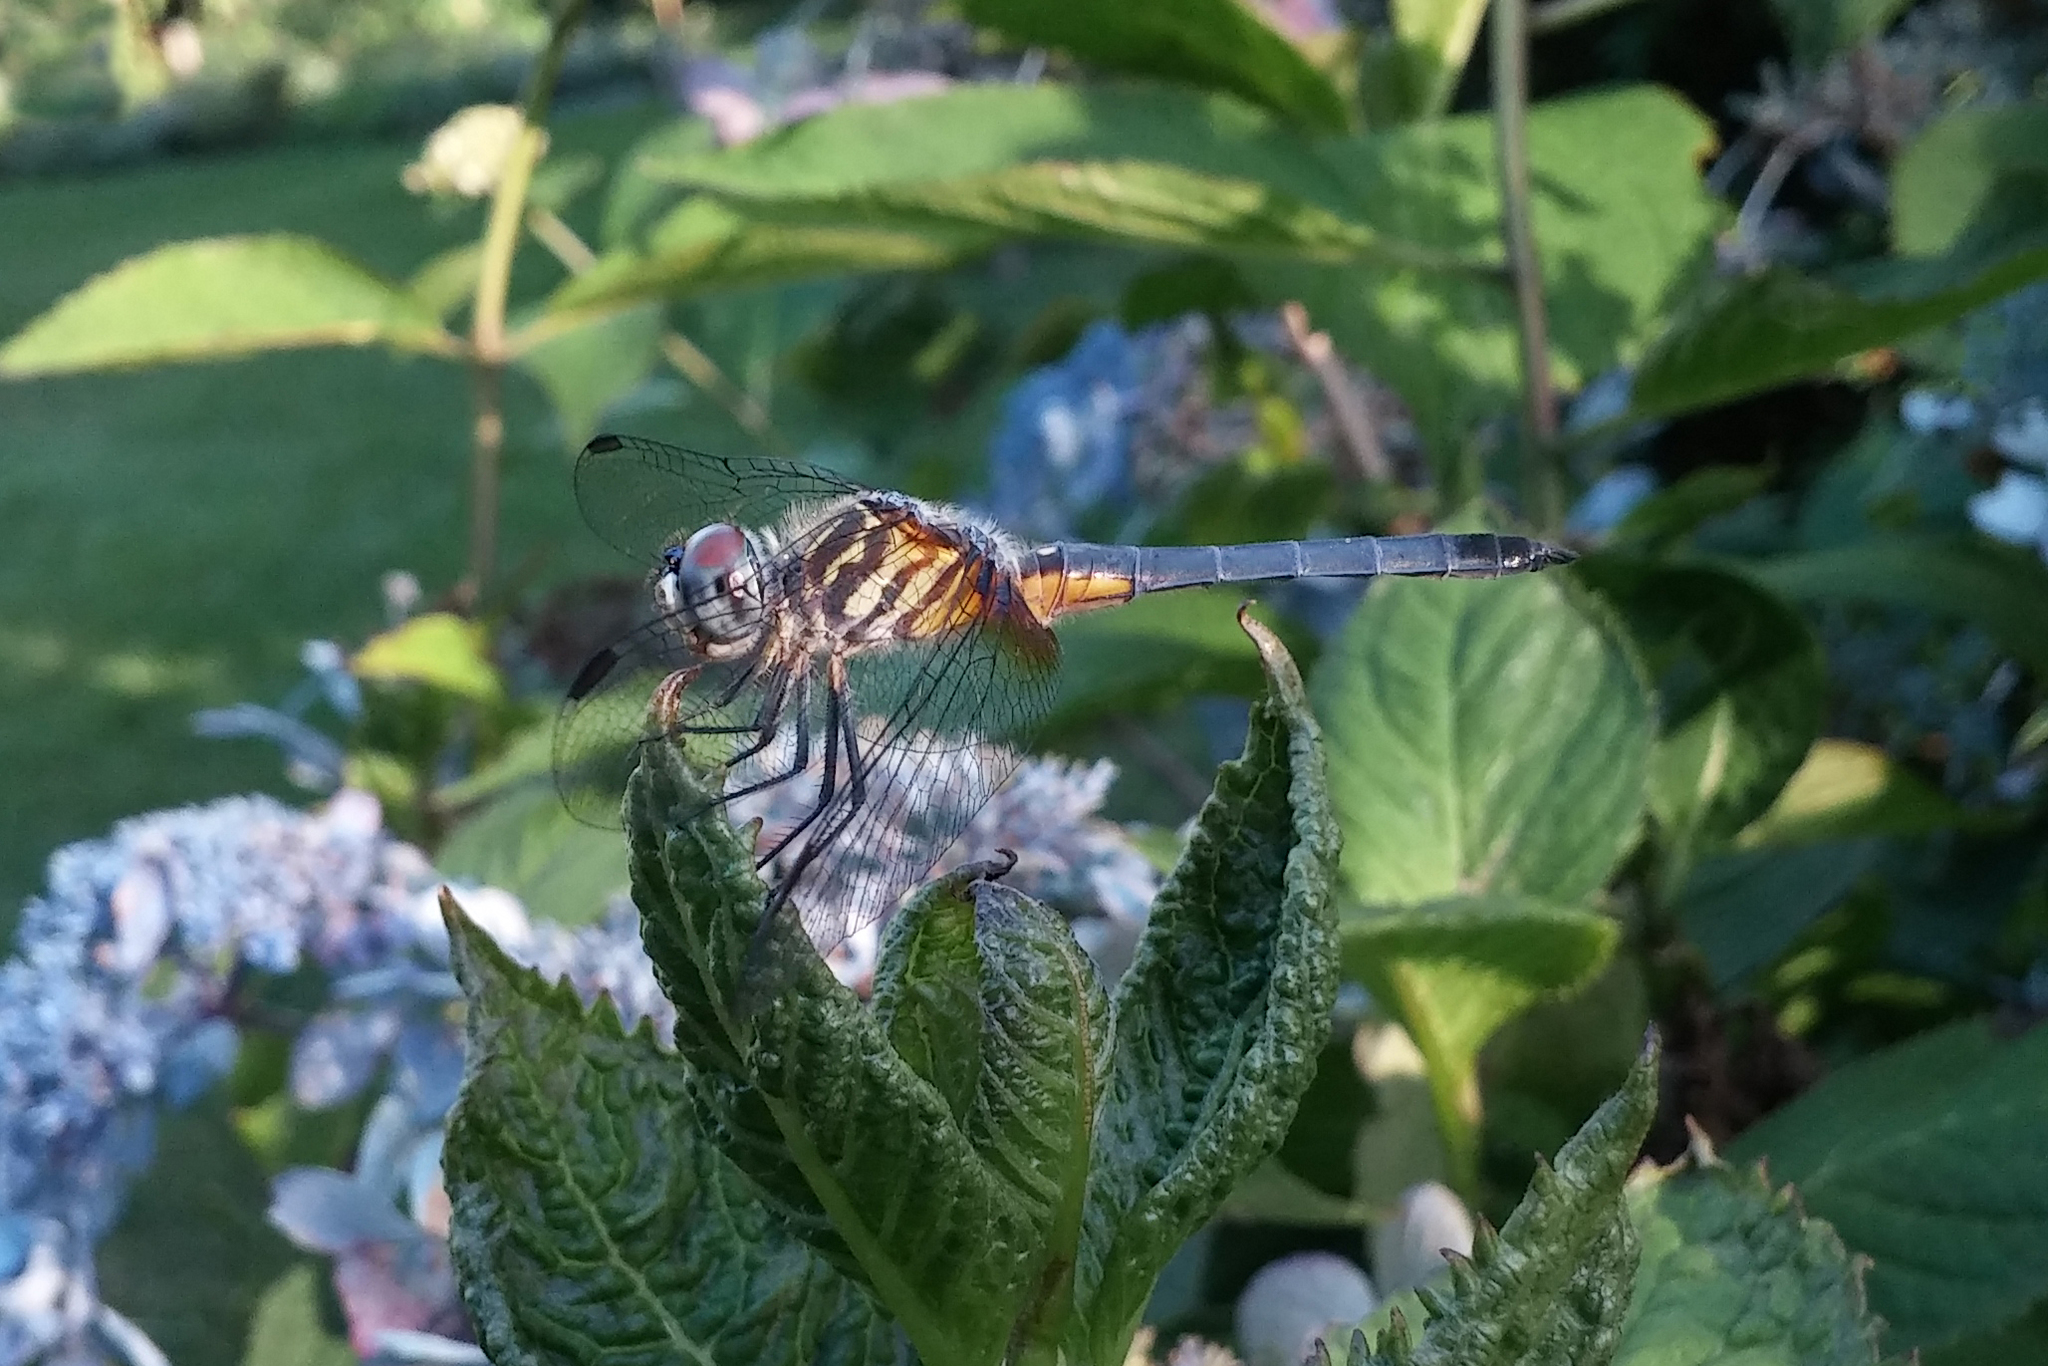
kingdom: Animalia
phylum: Arthropoda
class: Insecta
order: Odonata
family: Libellulidae
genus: Pachydiplax
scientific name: Pachydiplax longipennis
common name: Blue dasher
